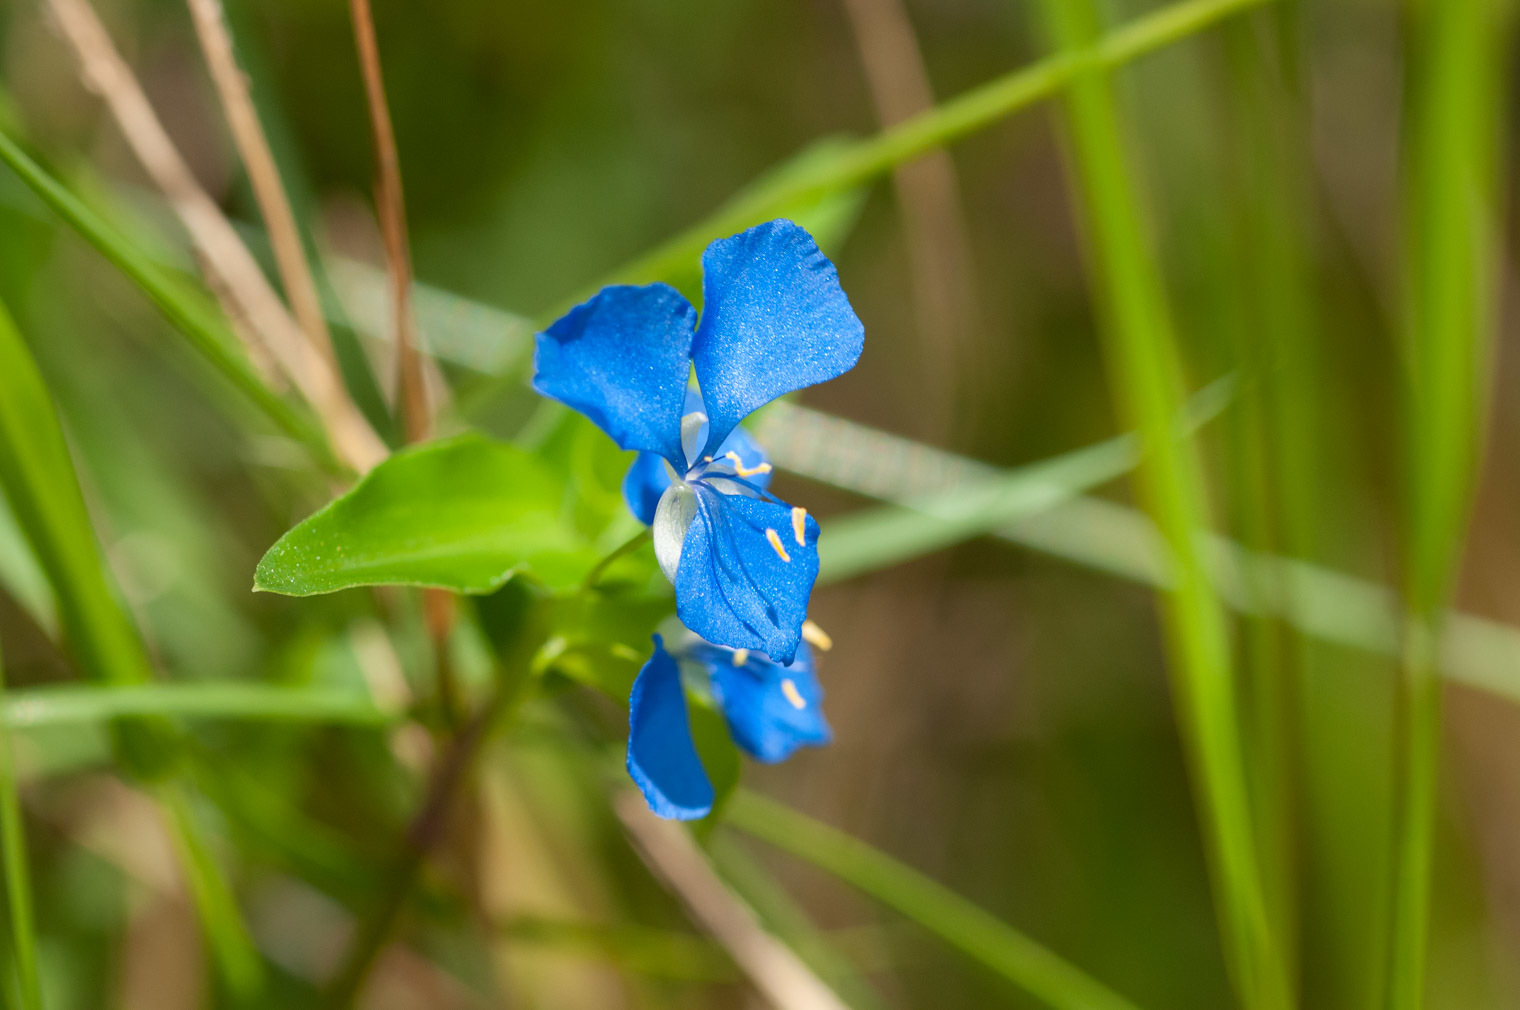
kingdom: Plantae
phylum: Tracheophyta
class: Liliopsida
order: Commelinales
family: Commelinaceae
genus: Commelina
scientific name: Commelina diffusa
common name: Climbing dayflower
